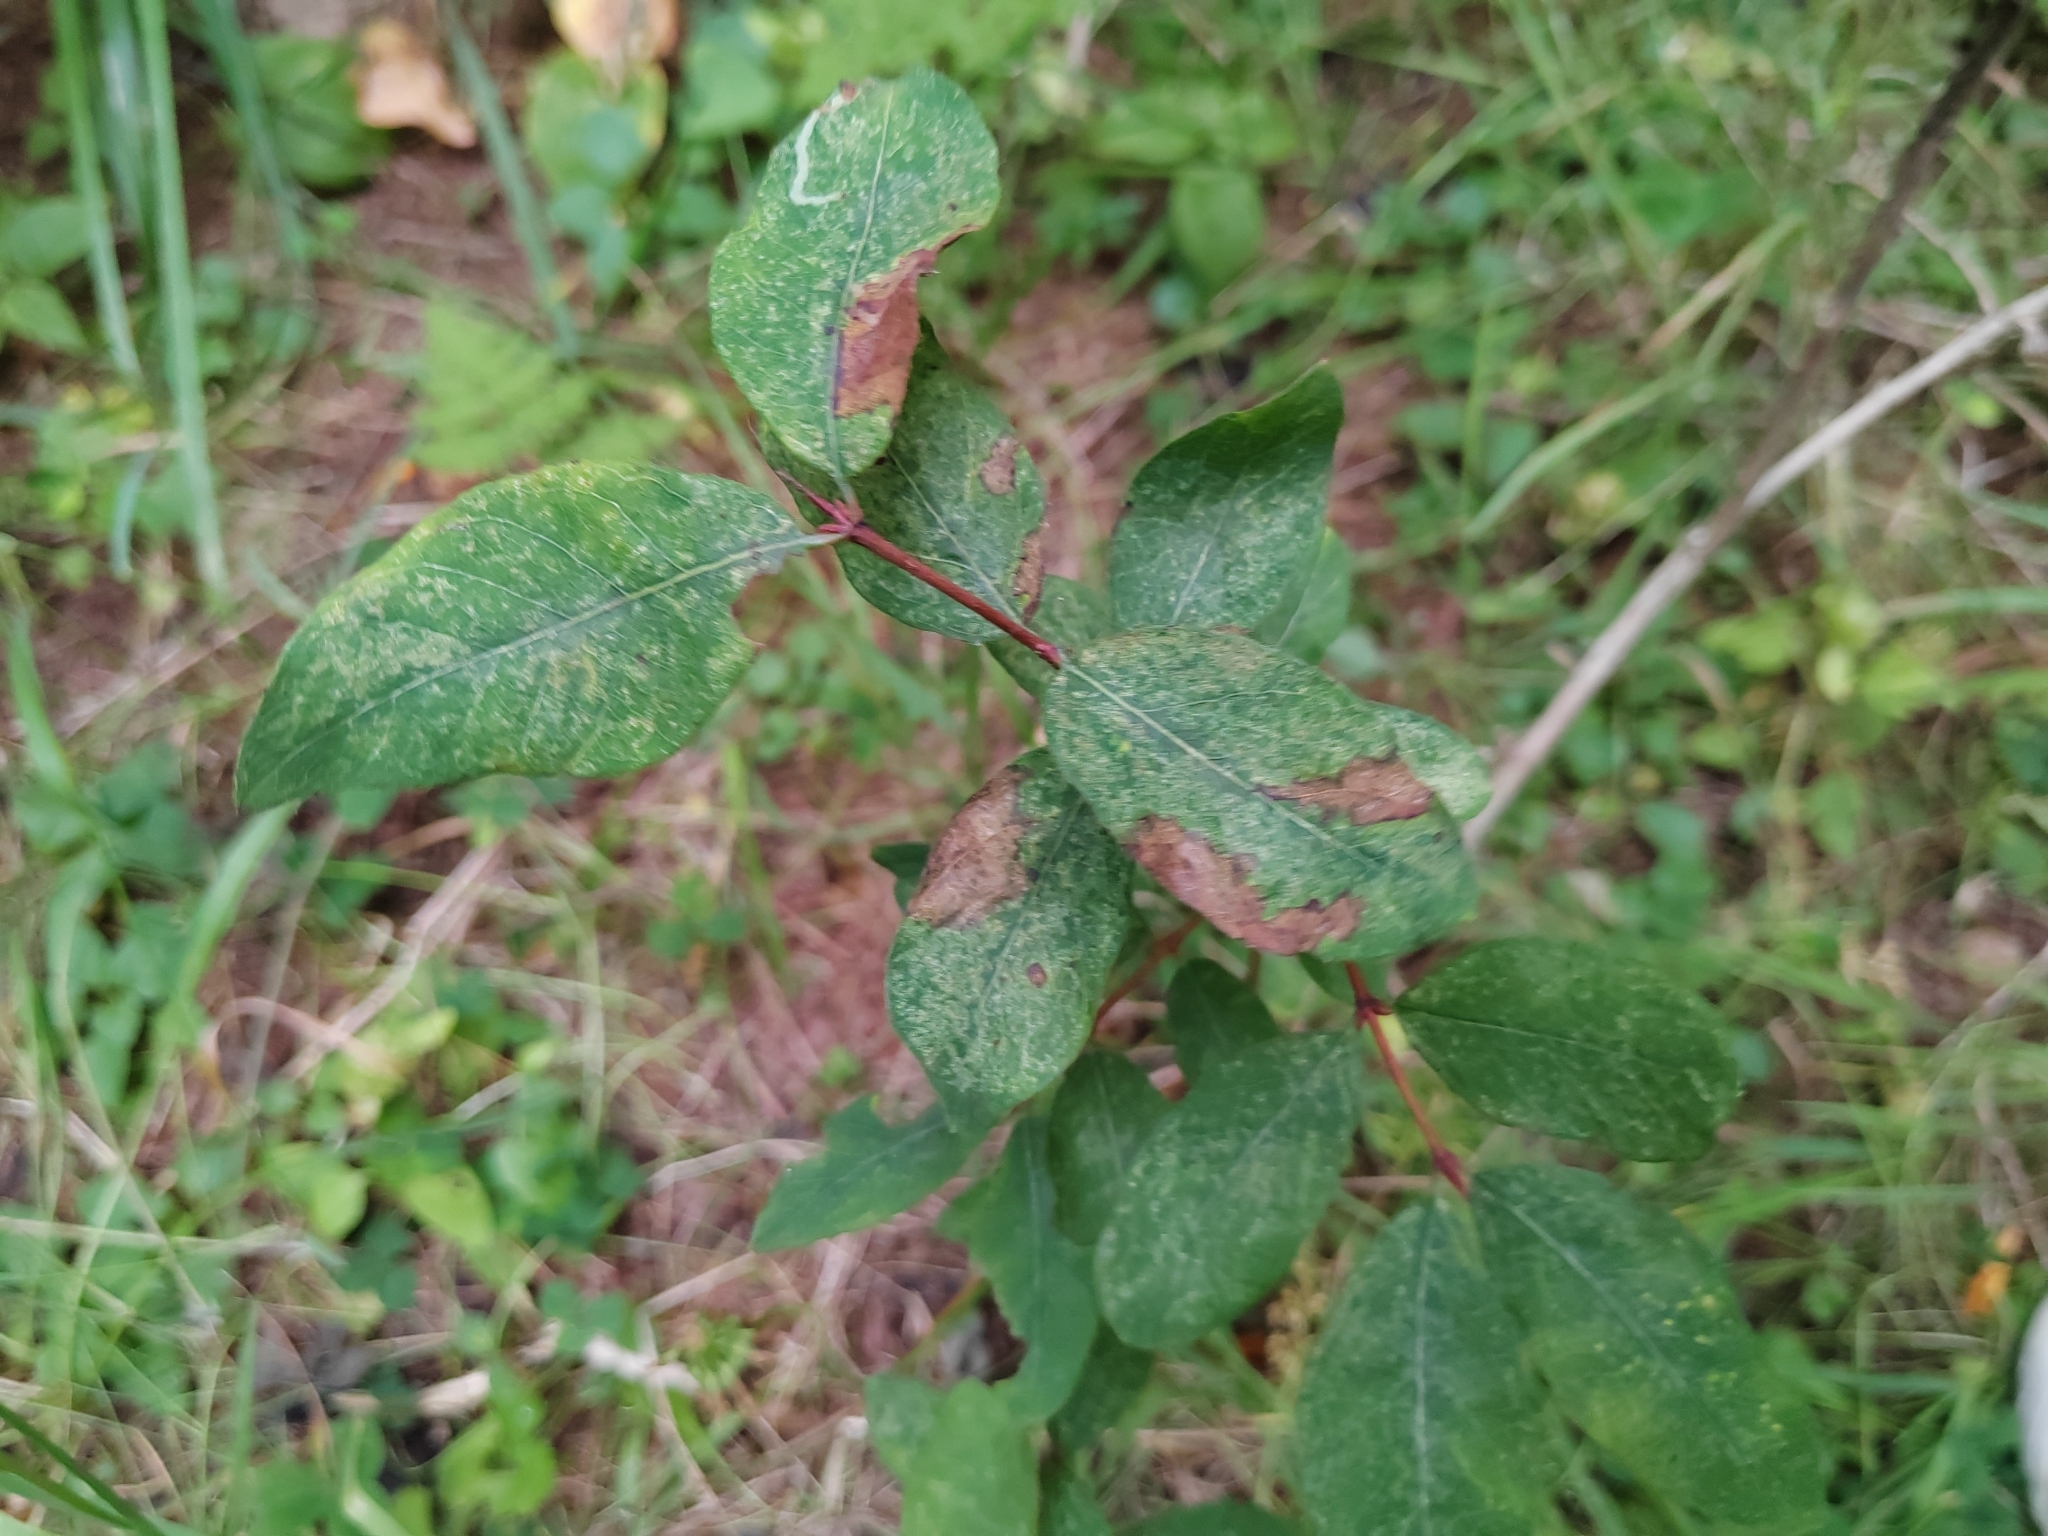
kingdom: Plantae
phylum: Tracheophyta
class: Magnoliopsida
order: Dipsacales
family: Caprifoliaceae
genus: Lonicera
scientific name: Lonicera caerulea
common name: Blue honeysuckle
